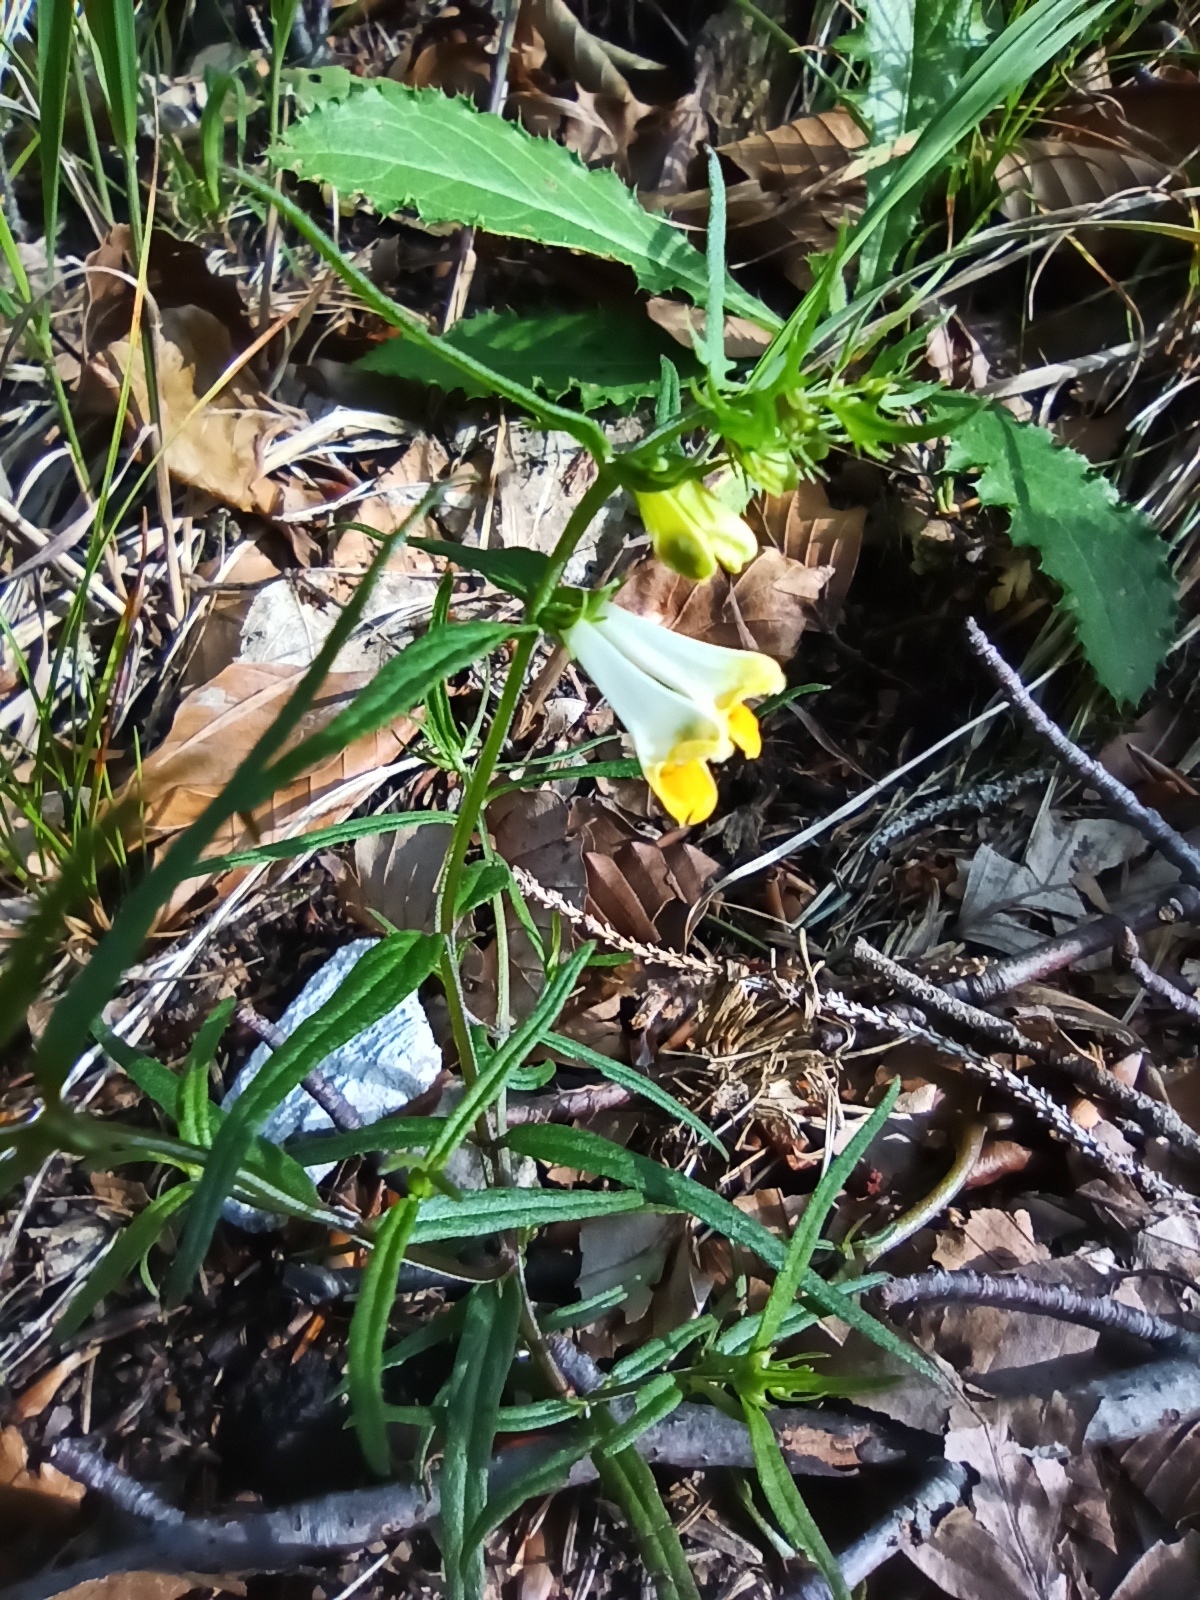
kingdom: Plantae
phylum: Tracheophyta
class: Magnoliopsida
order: Lamiales
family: Orobanchaceae
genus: Melampyrum
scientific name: Melampyrum pratense
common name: Common cow-wheat
